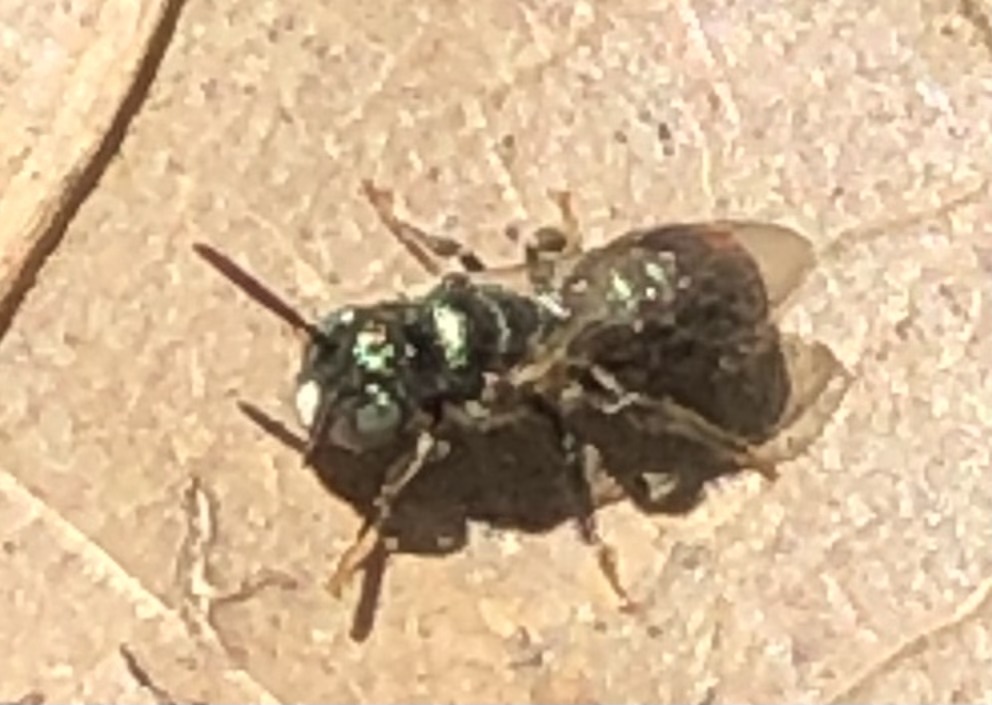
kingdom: Animalia
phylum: Arthropoda
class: Insecta
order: Hymenoptera
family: Apidae
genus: Ceratina
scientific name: Ceratina strenua
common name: Nimble carpenter bee
